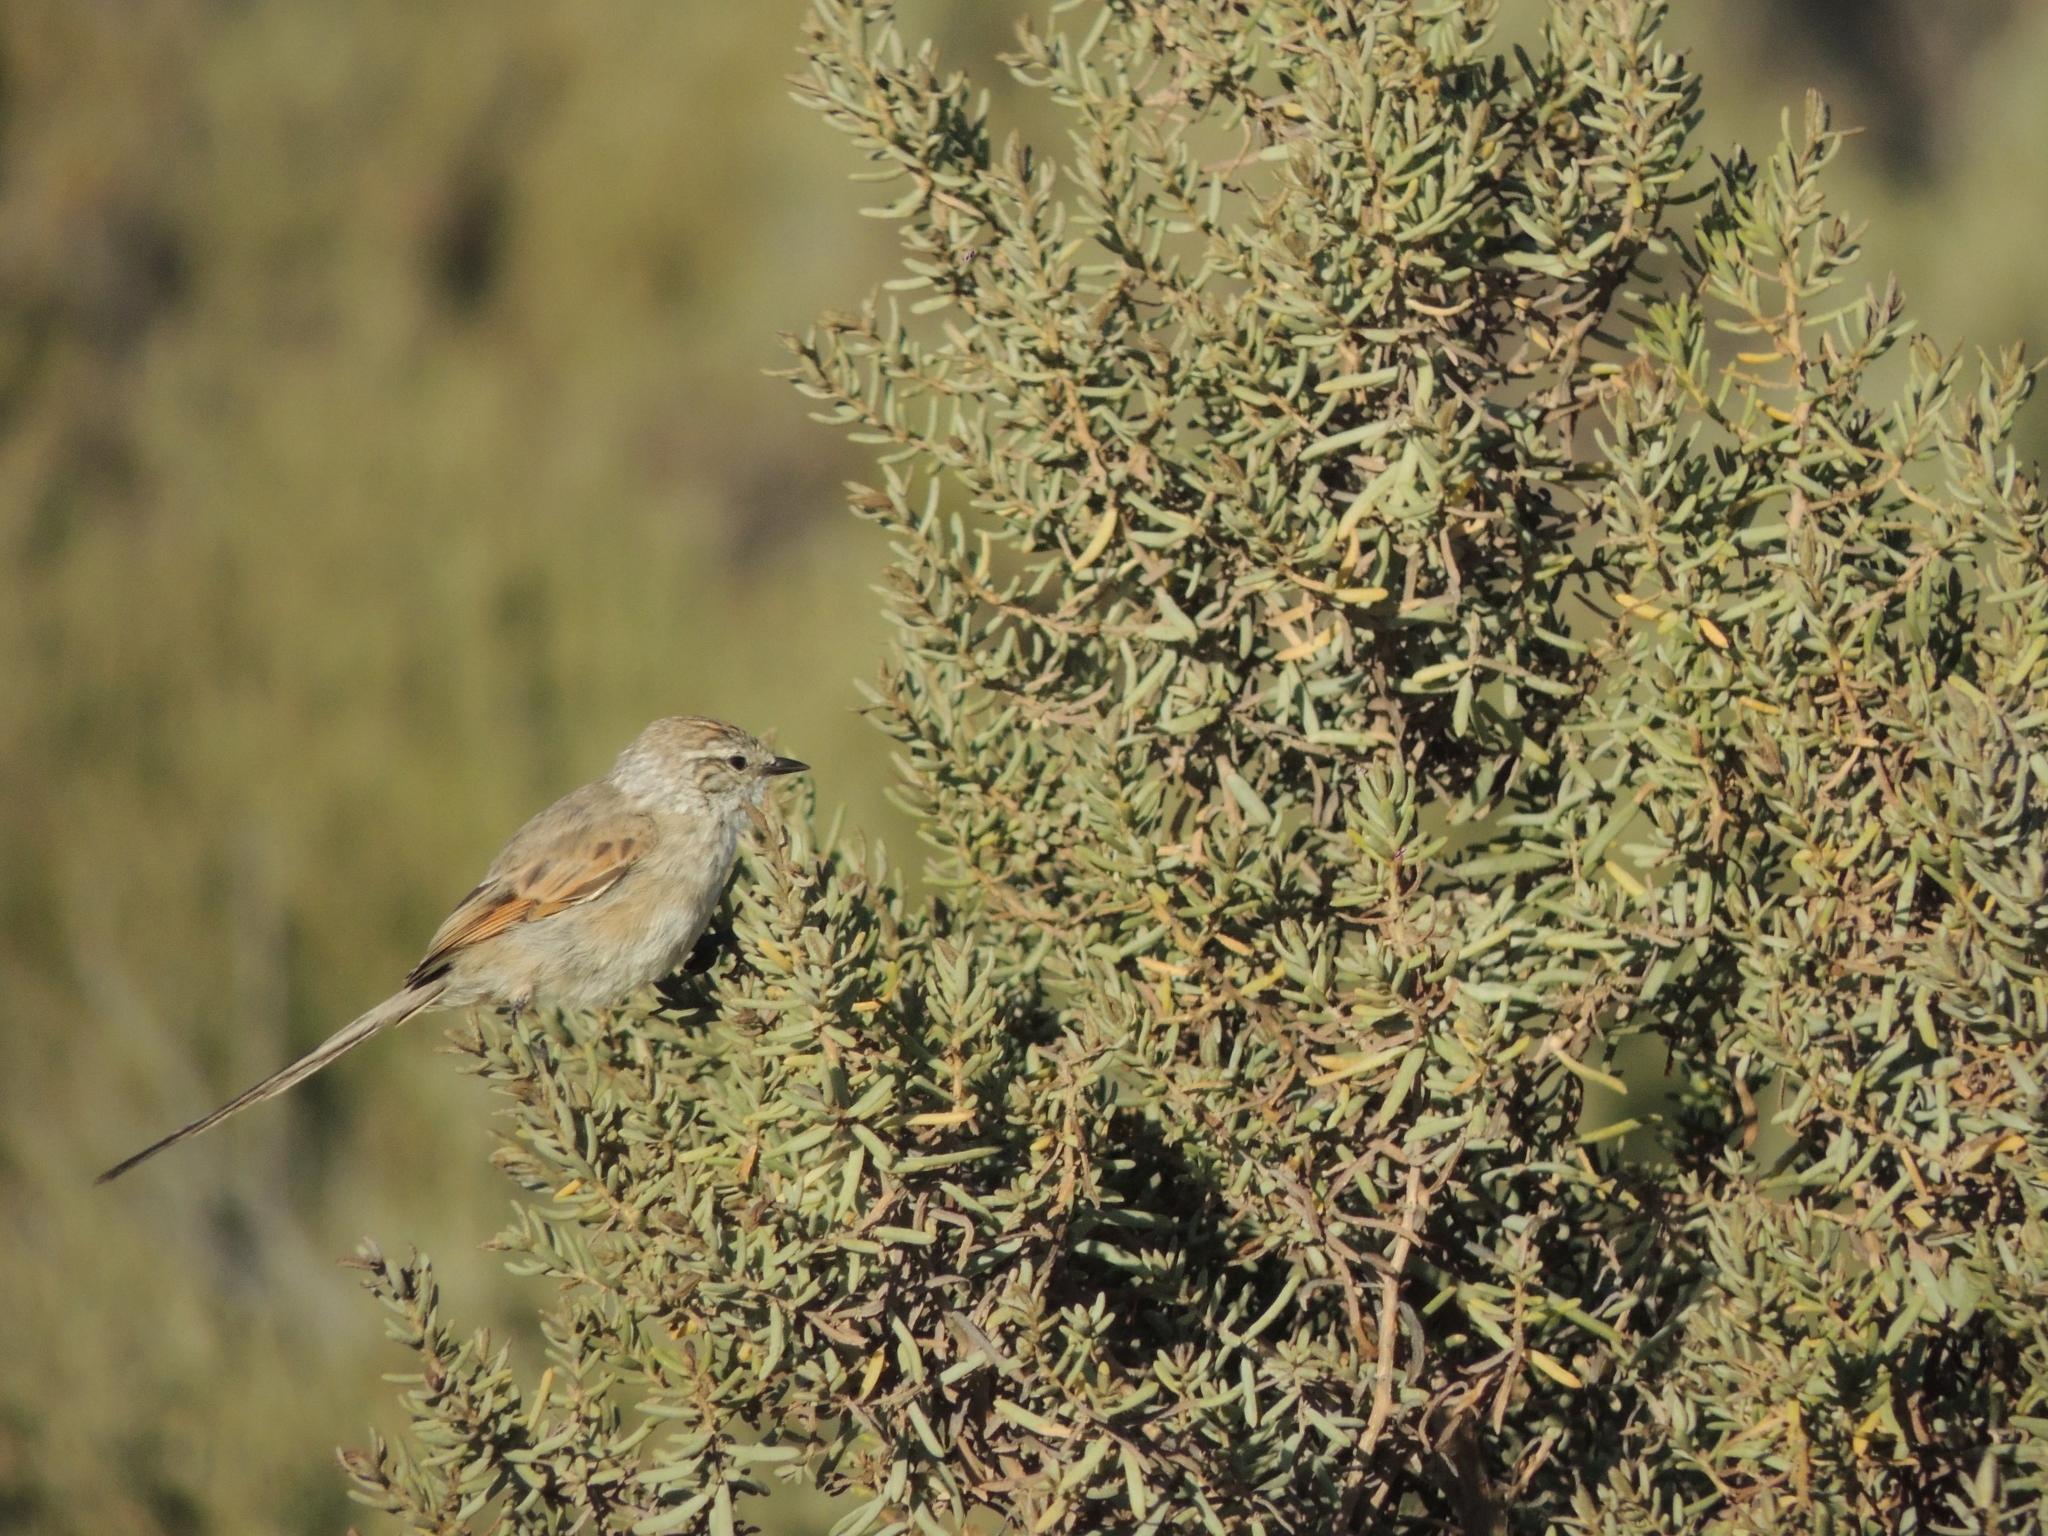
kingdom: Animalia
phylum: Chordata
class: Aves
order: Passeriformes
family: Furnariidae
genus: Leptasthenura
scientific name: Leptasthenura aegithaloides
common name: Plain-mantled tit-spinetail
